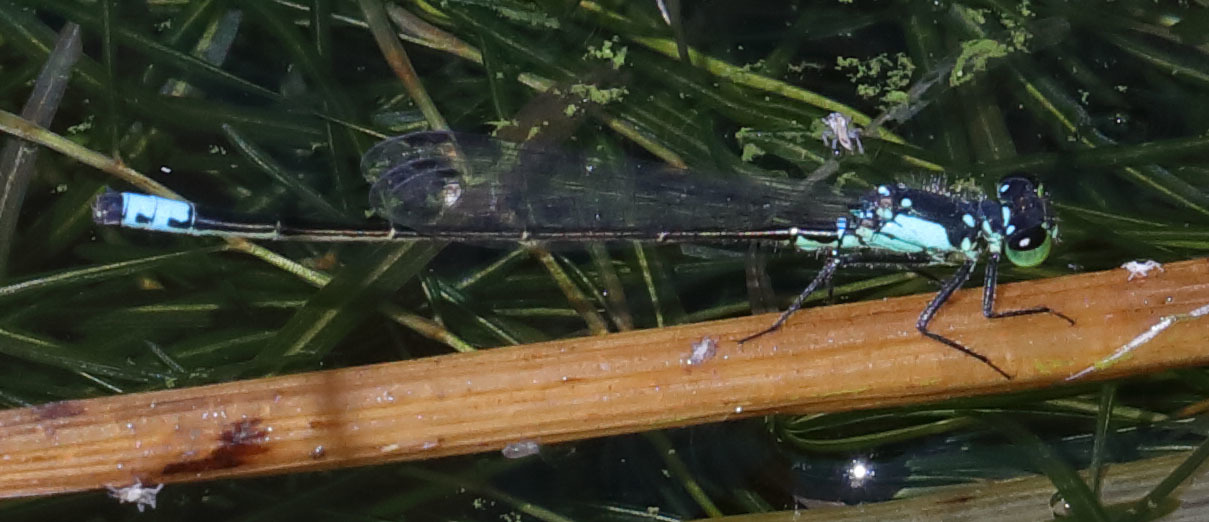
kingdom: Animalia
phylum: Arthropoda
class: Insecta
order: Odonata
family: Coenagrionidae
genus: Ischnura
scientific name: Ischnura cervula
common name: Pacific forktail
